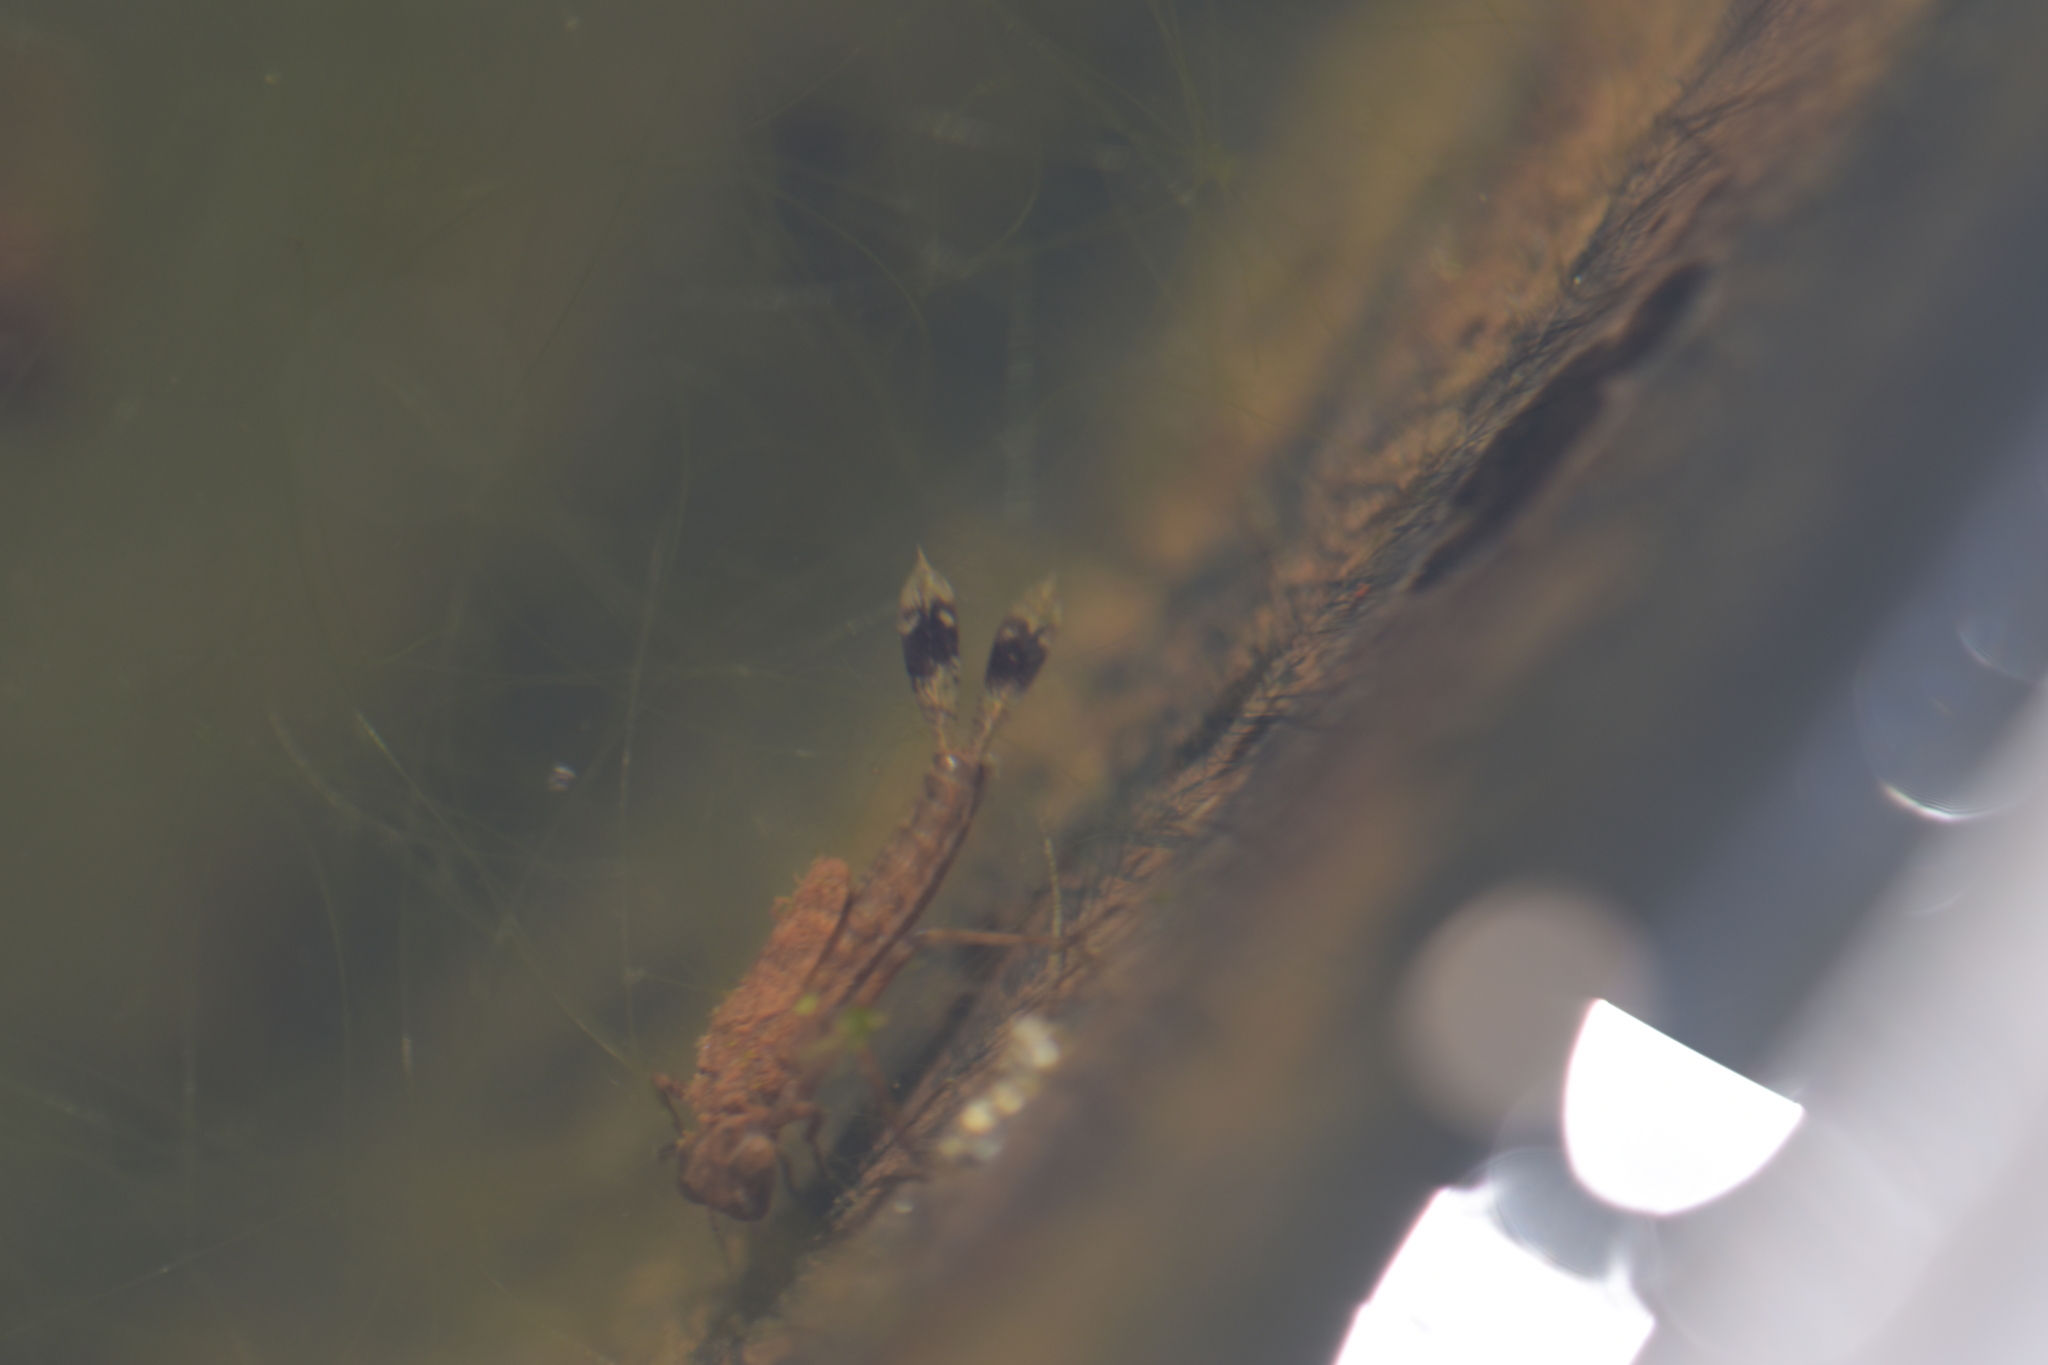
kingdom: Animalia
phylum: Arthropoda
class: Insecta
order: Odonata
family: Coenagrionidae
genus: Pyrrhosoma
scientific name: Pyrrhosoma nymphula
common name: Large red damsel
